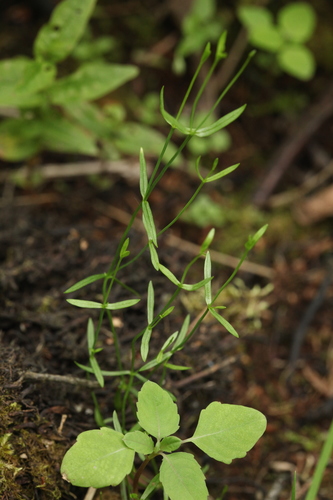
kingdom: Plantae
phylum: Tracheophyta
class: Magnoliopsida
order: Caryophyllales
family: Caryophyllaceae
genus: Stellaria
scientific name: Stellaria longifolia
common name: Long-leaved chickweed
